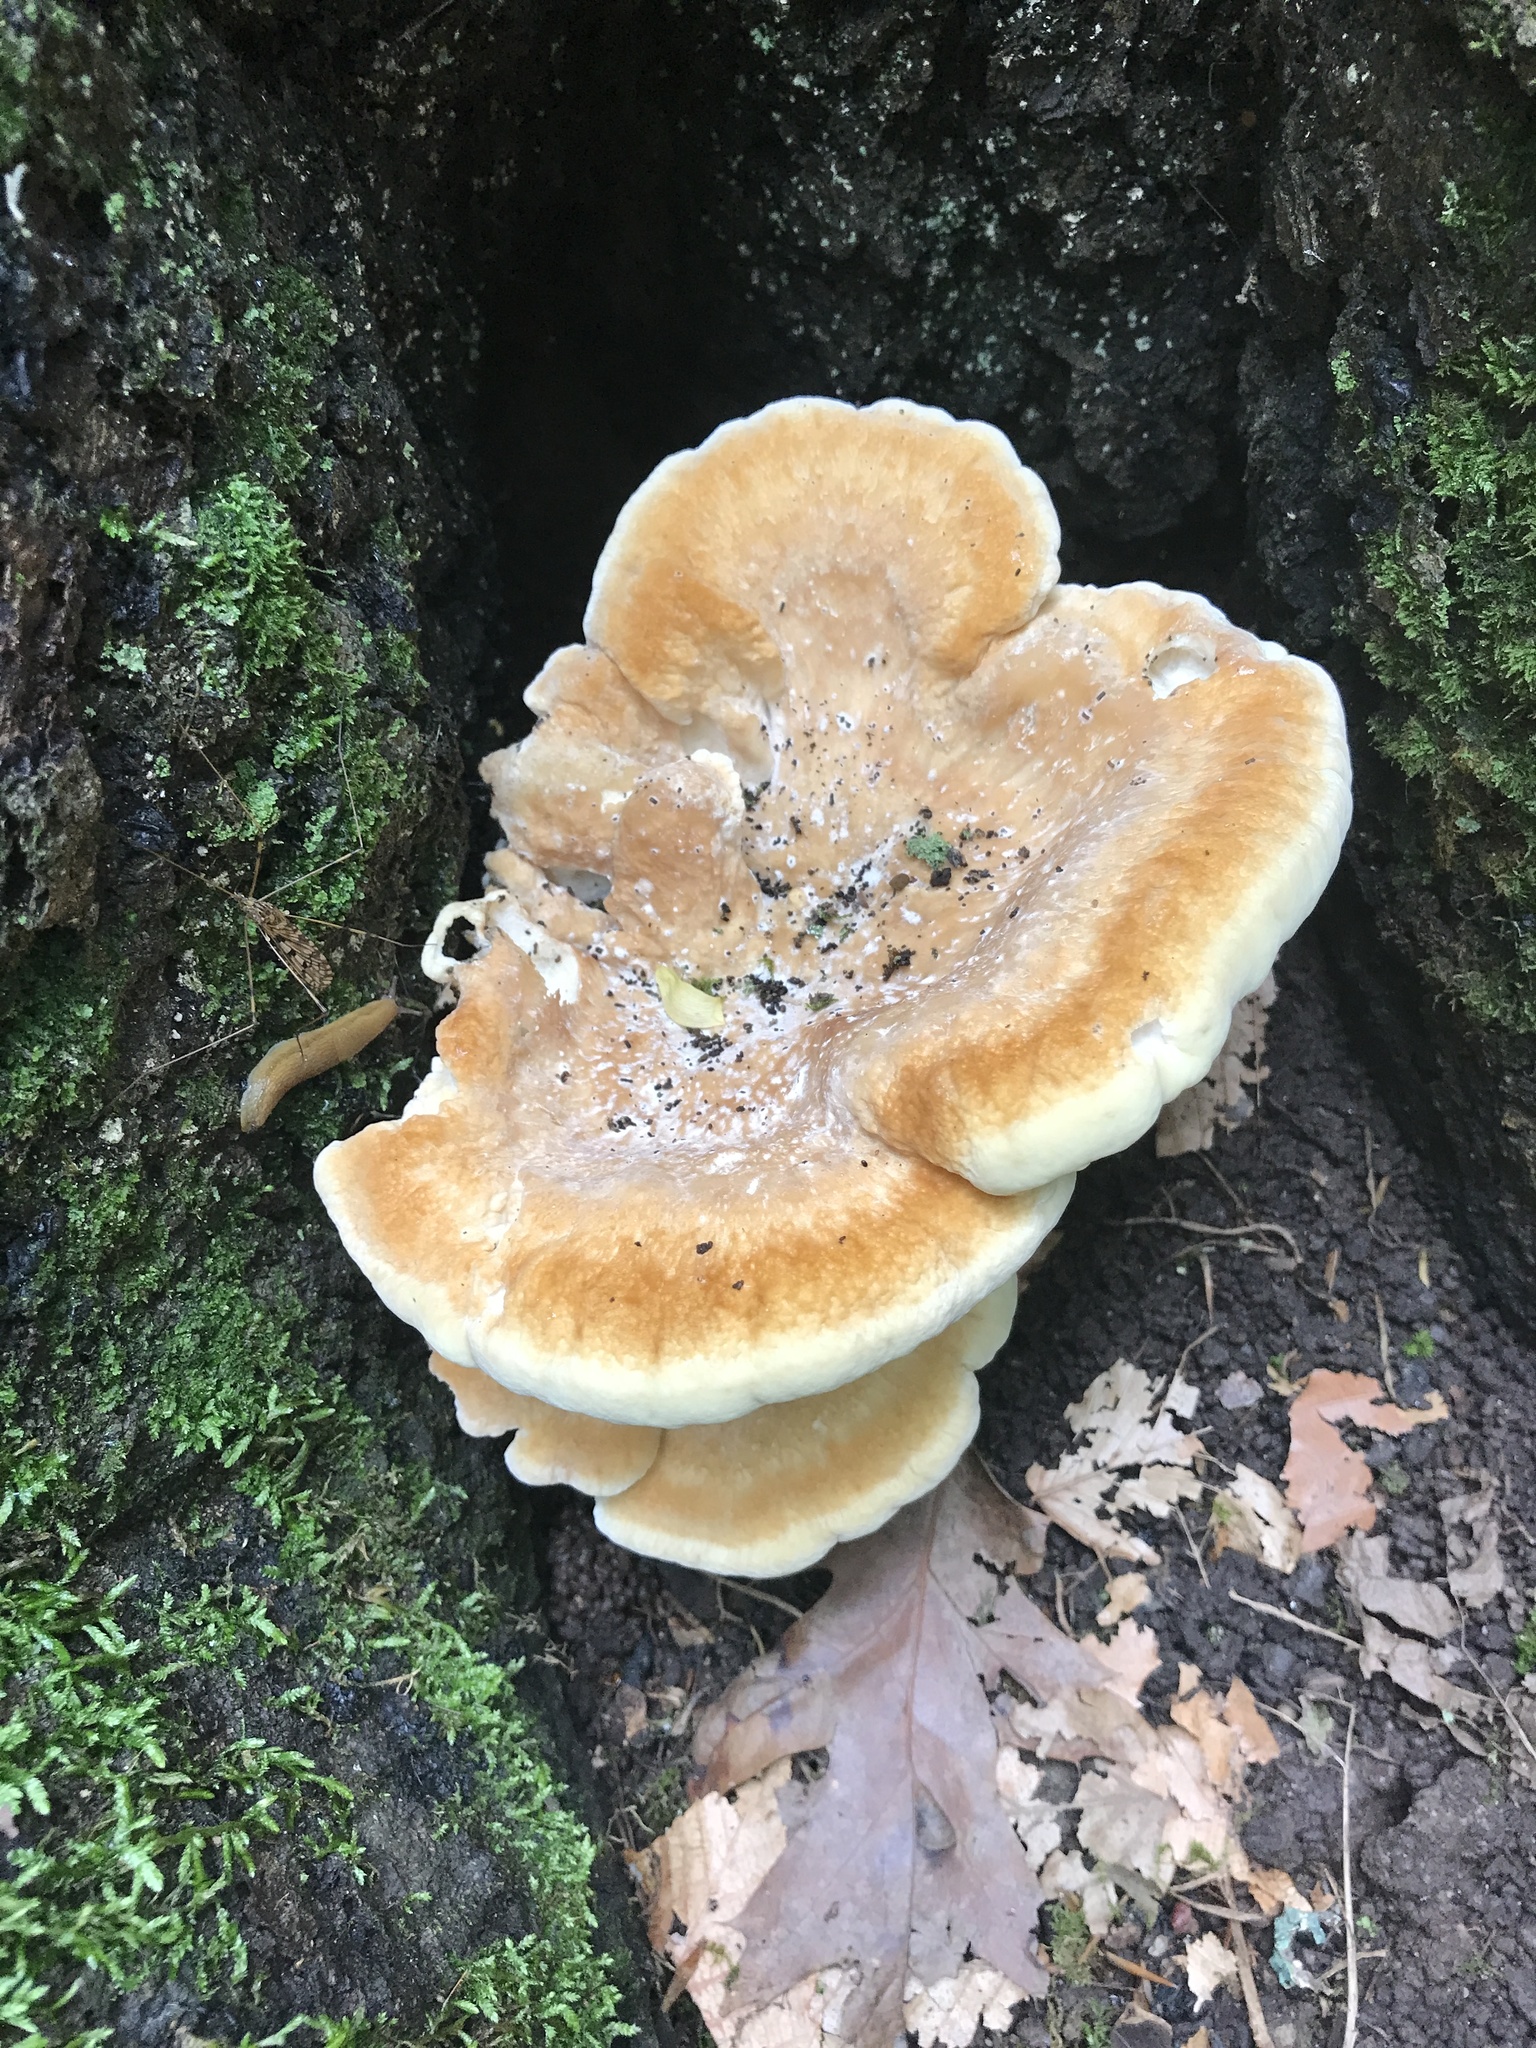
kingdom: Fungi
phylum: Basidiomycota
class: Agaricomycetes
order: Russulales
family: Bondarzewiaceae
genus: Bondarzewia
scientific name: Bondarzewia berkeleyi
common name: Berkeley's polypore
